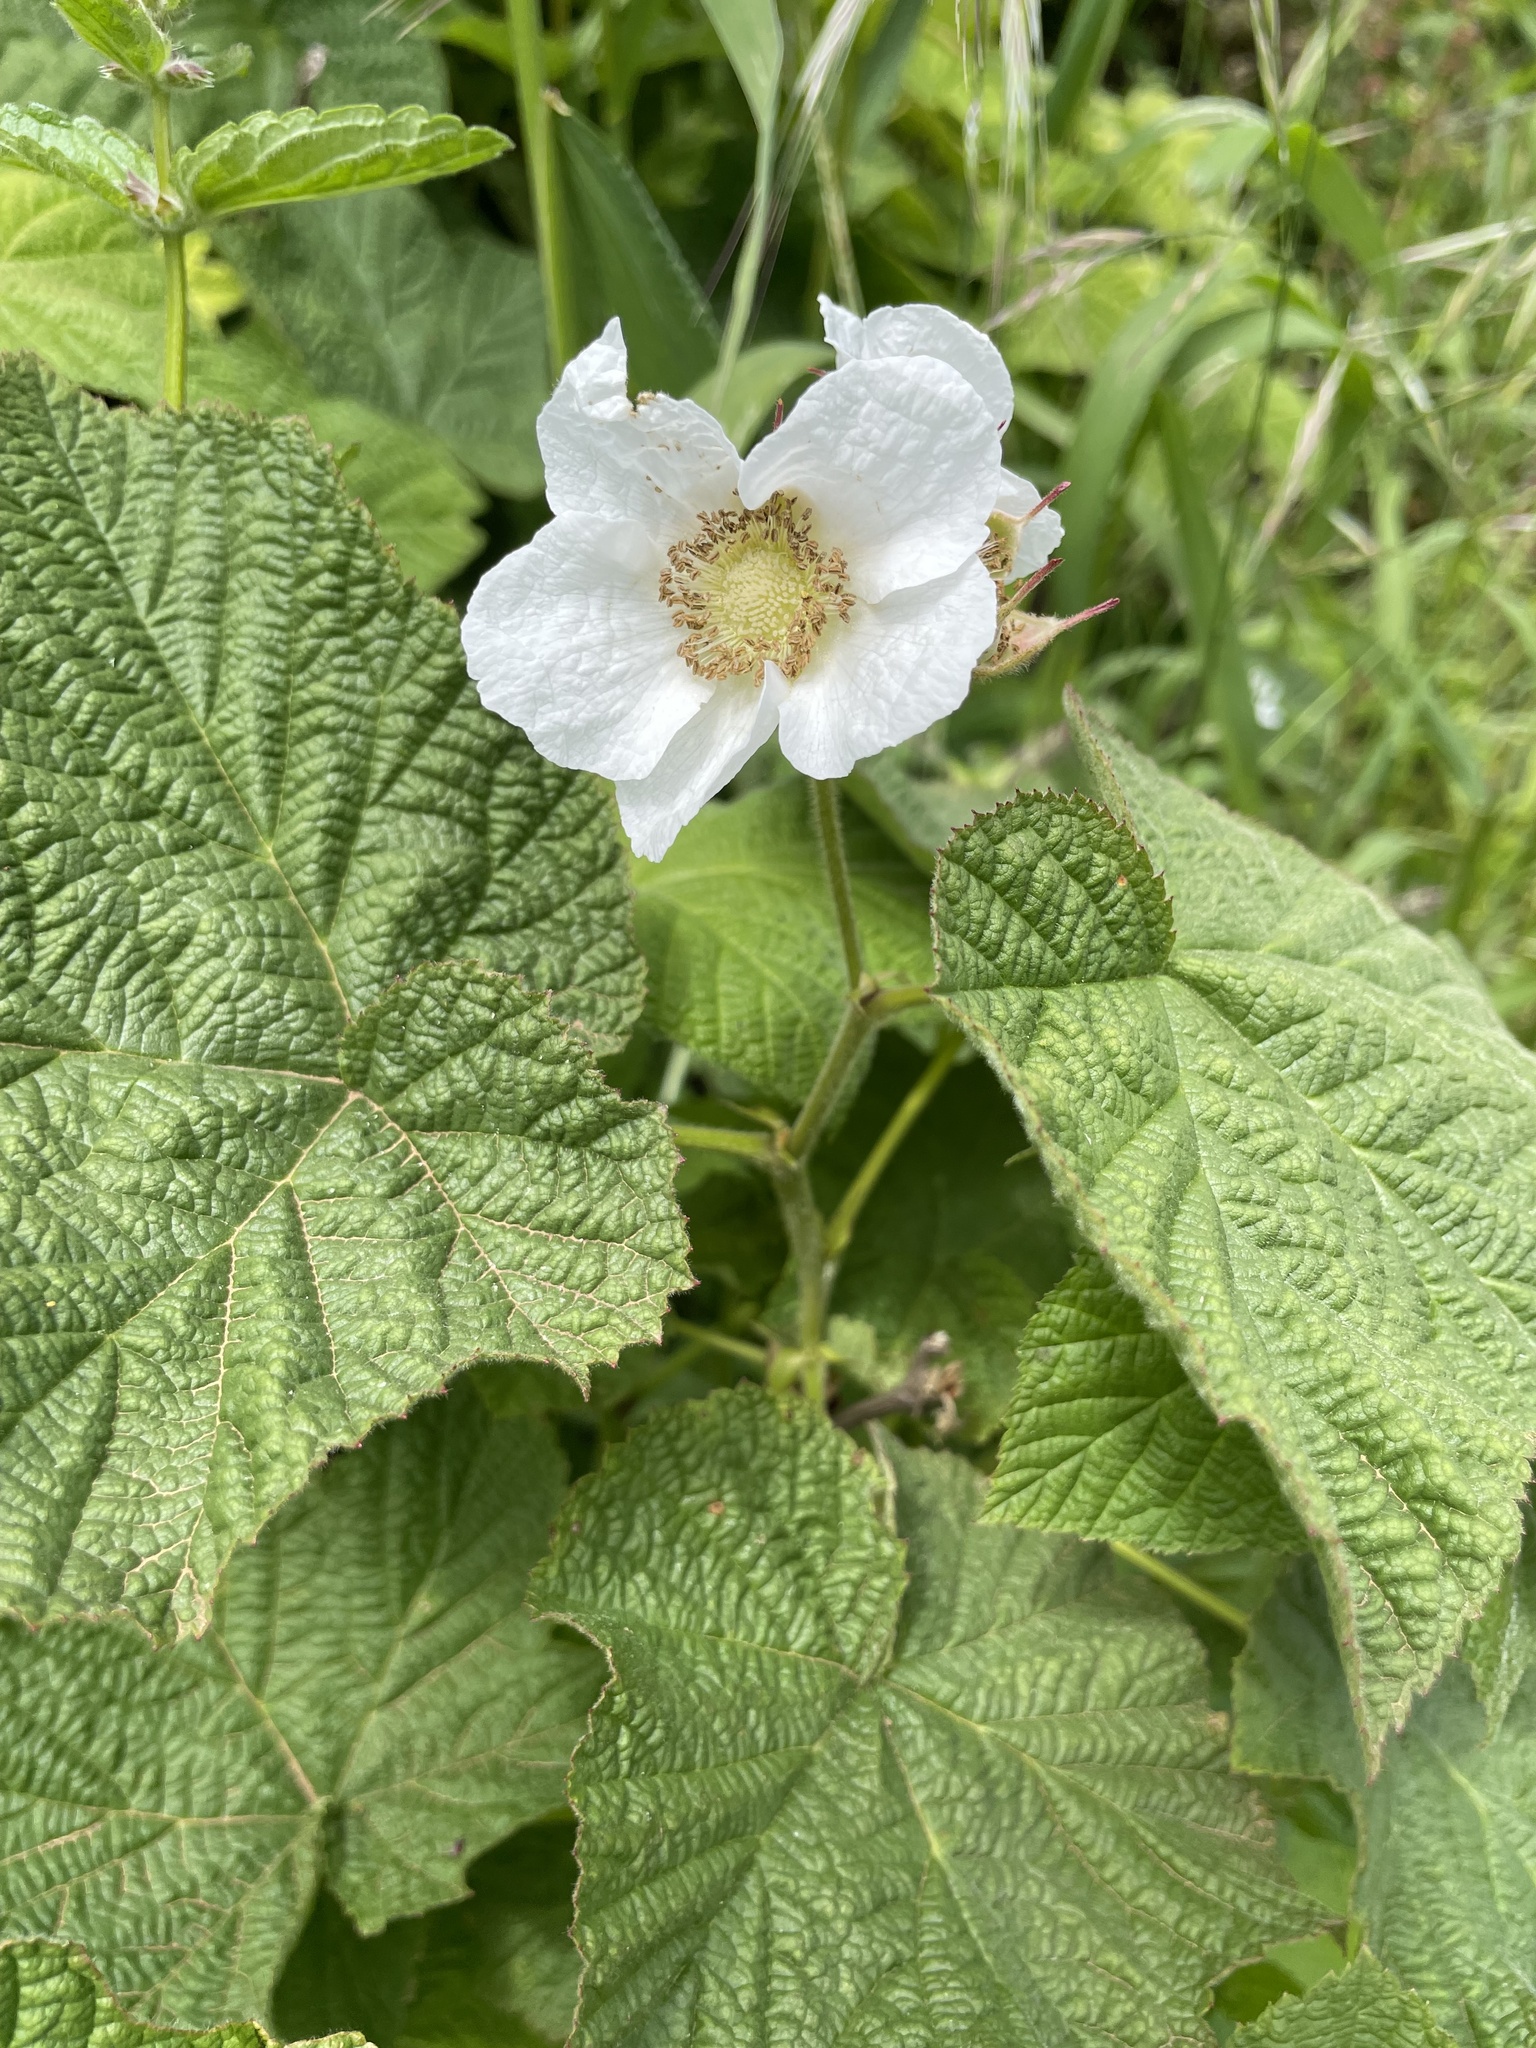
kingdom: Plantae
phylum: Tracheophyta
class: Magnoliopsida
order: Rosales
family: Rosaceae
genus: Rubus
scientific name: Rubus parviflorus
